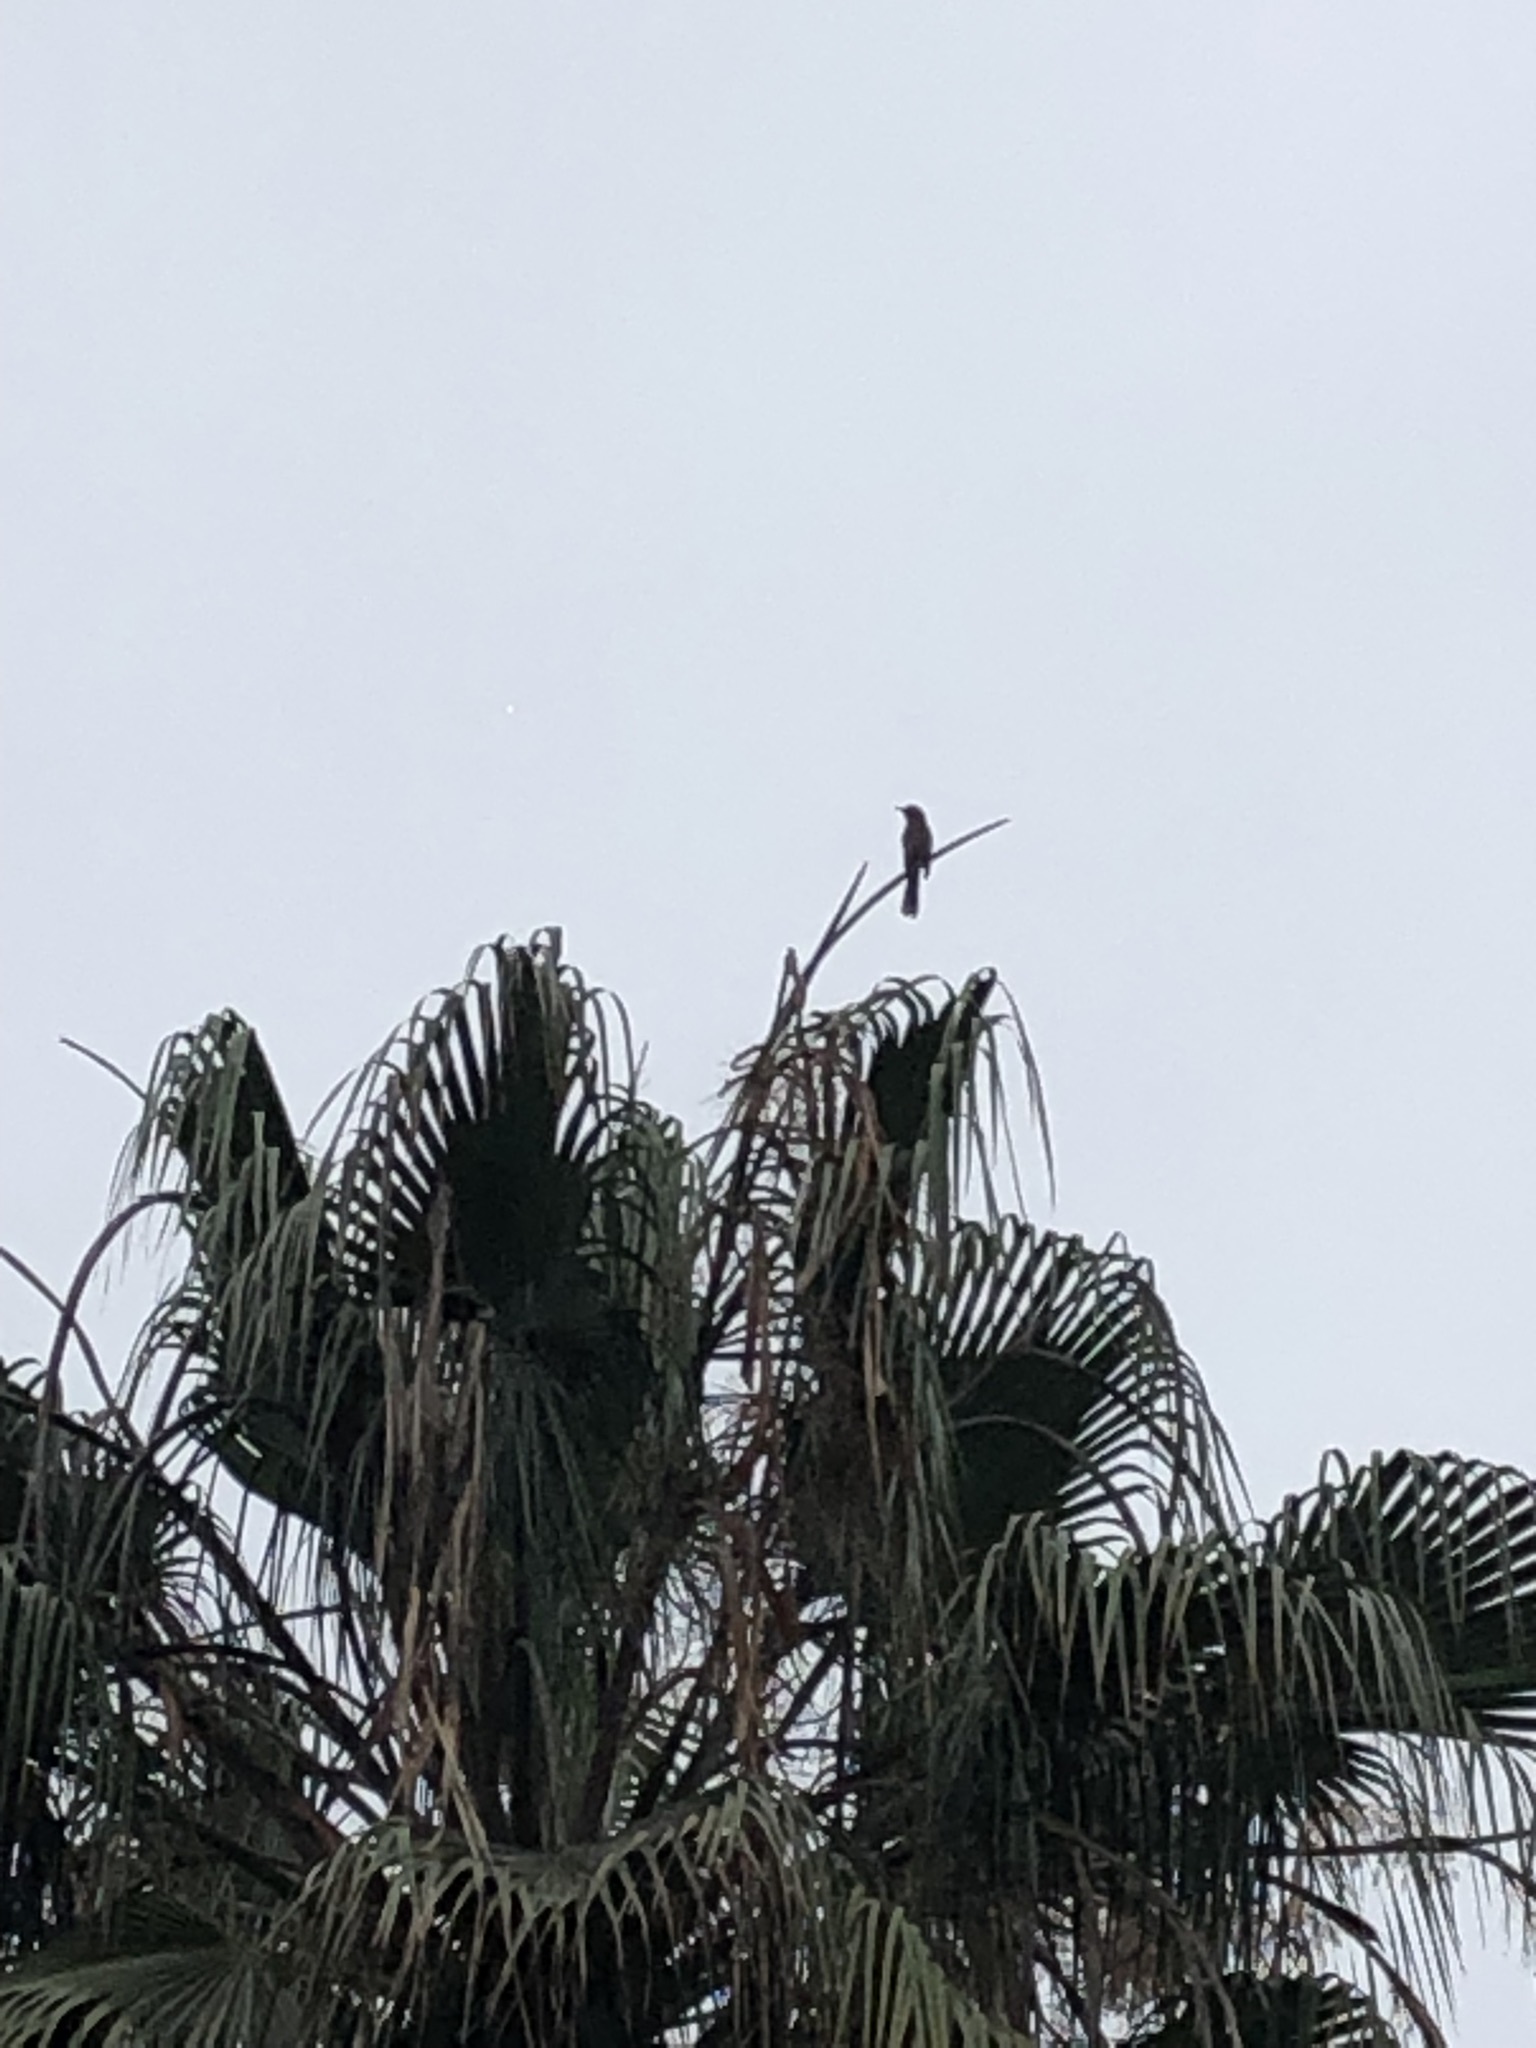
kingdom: Animalia
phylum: Chordata
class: Aves
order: Passeriformes
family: Mimidae
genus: Mimus
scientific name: Mimus longicaudatus
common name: Long-tailed mockingbird
